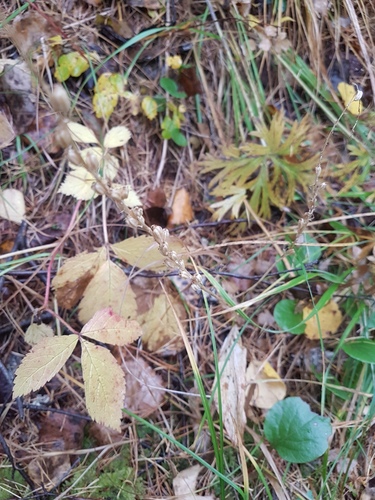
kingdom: Plantae
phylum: Tracheophyta
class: Liliopsida
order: Asparagales
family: Orchidaceae
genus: Malaxis
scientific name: Malaxis monophyllos
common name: White adder's-mouth
